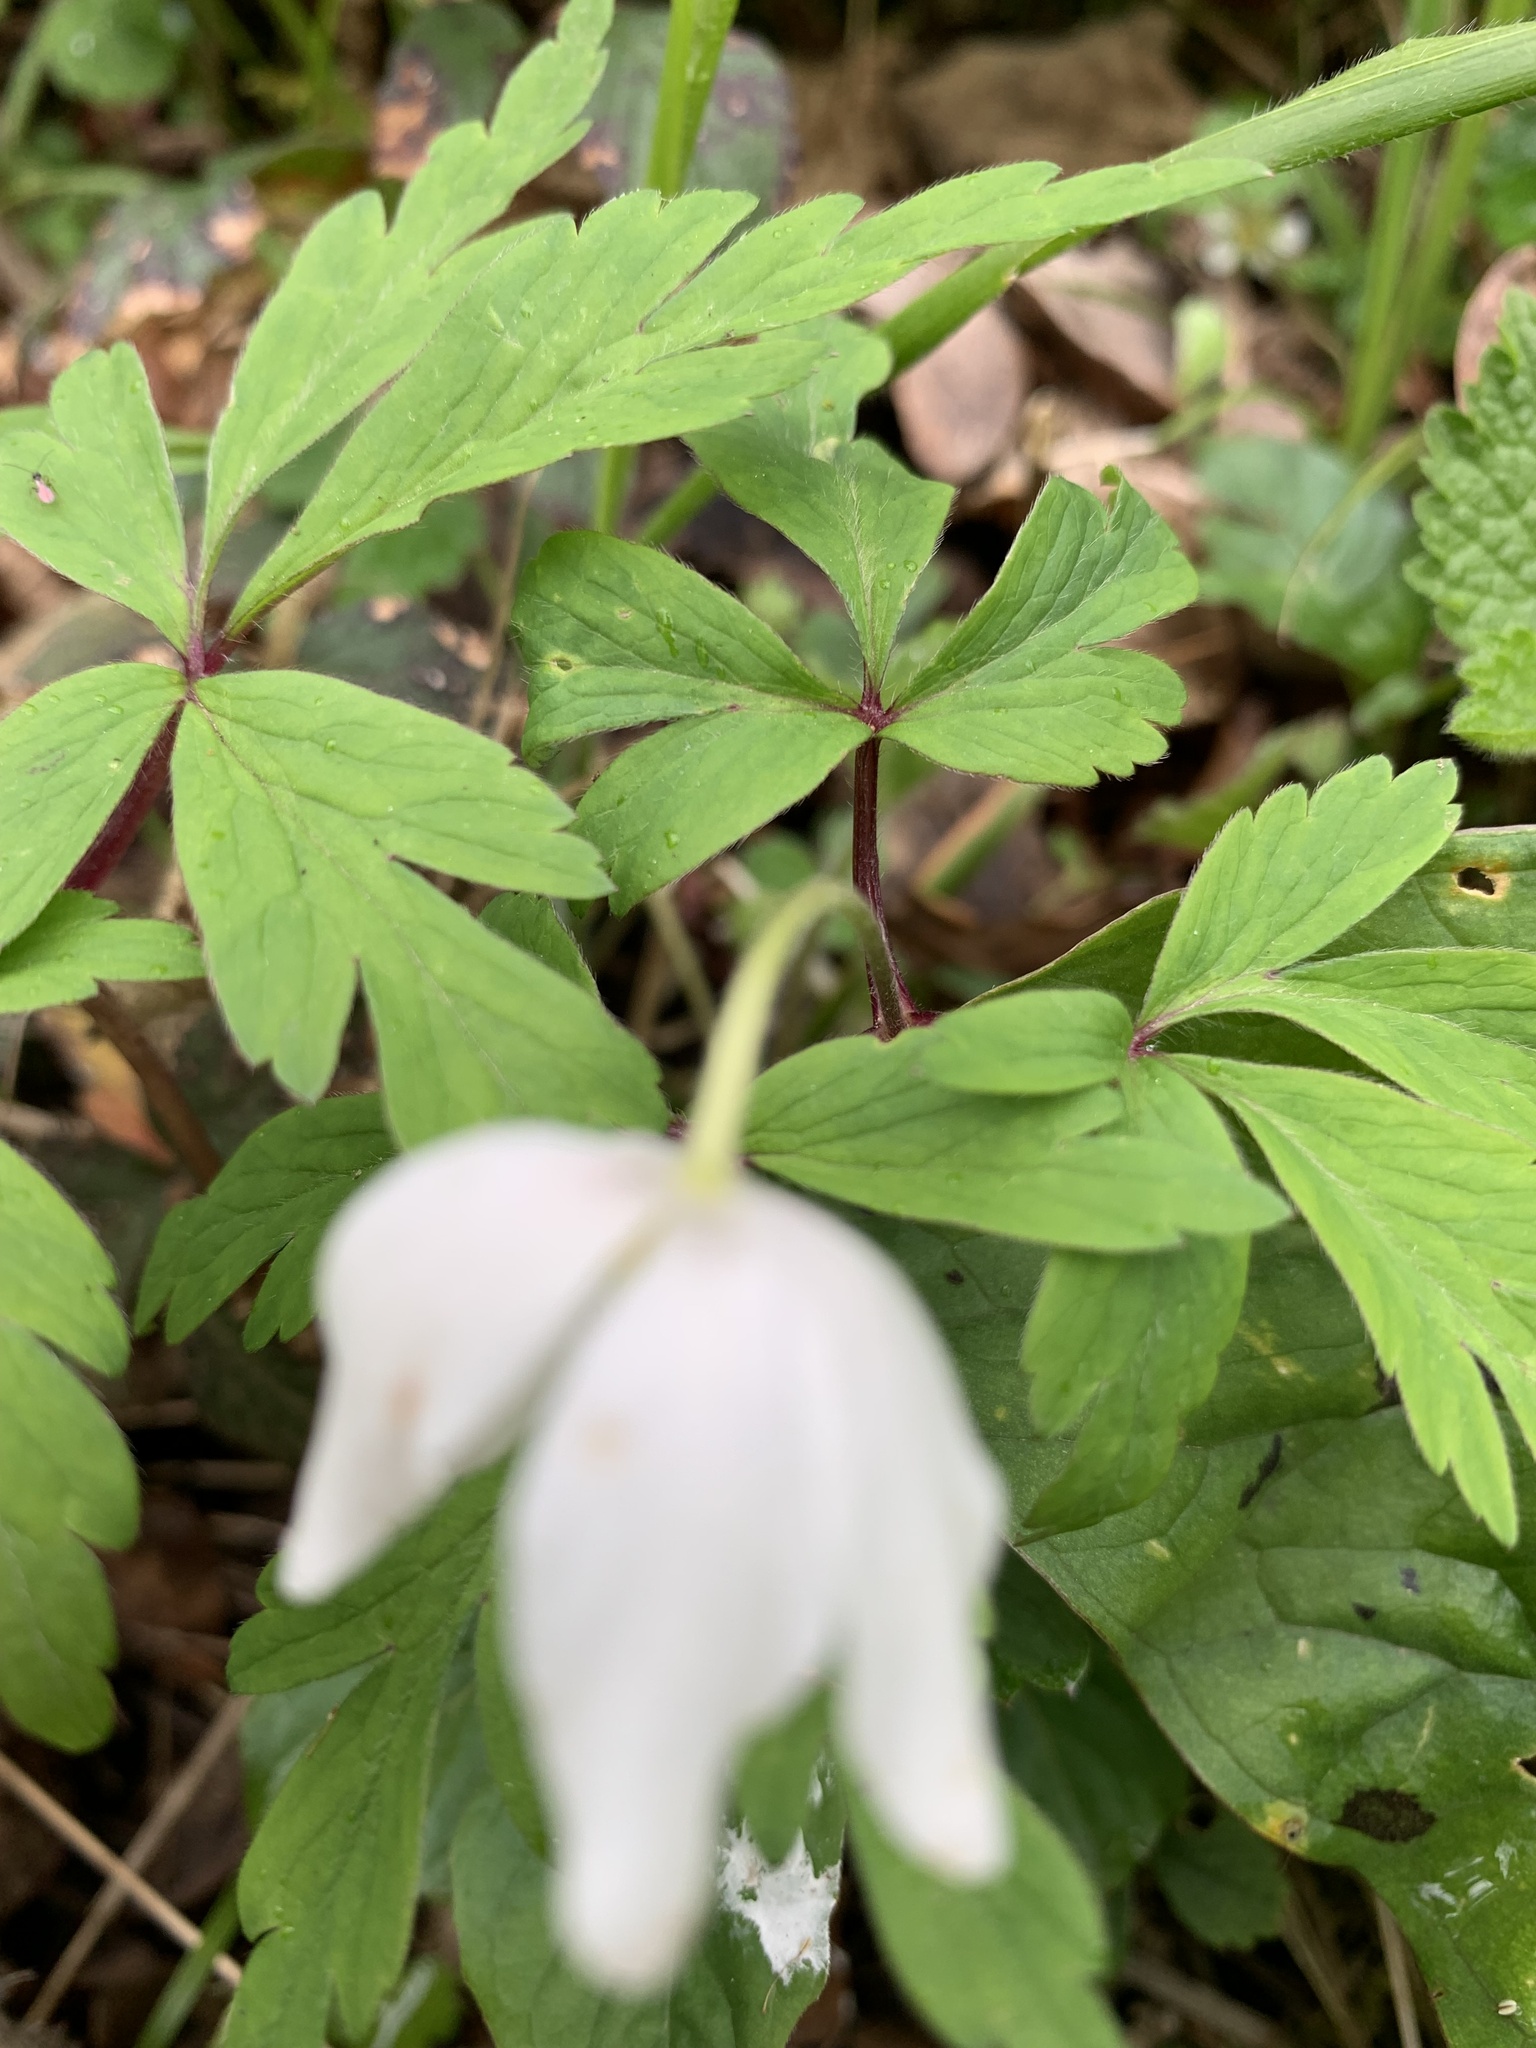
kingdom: Plantae
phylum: Tracheophyta
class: Magnoliopsida
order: Ranunculales
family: Ranunculaceae
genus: Anemone
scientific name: Anemone nemorosa
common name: Wood anemone
